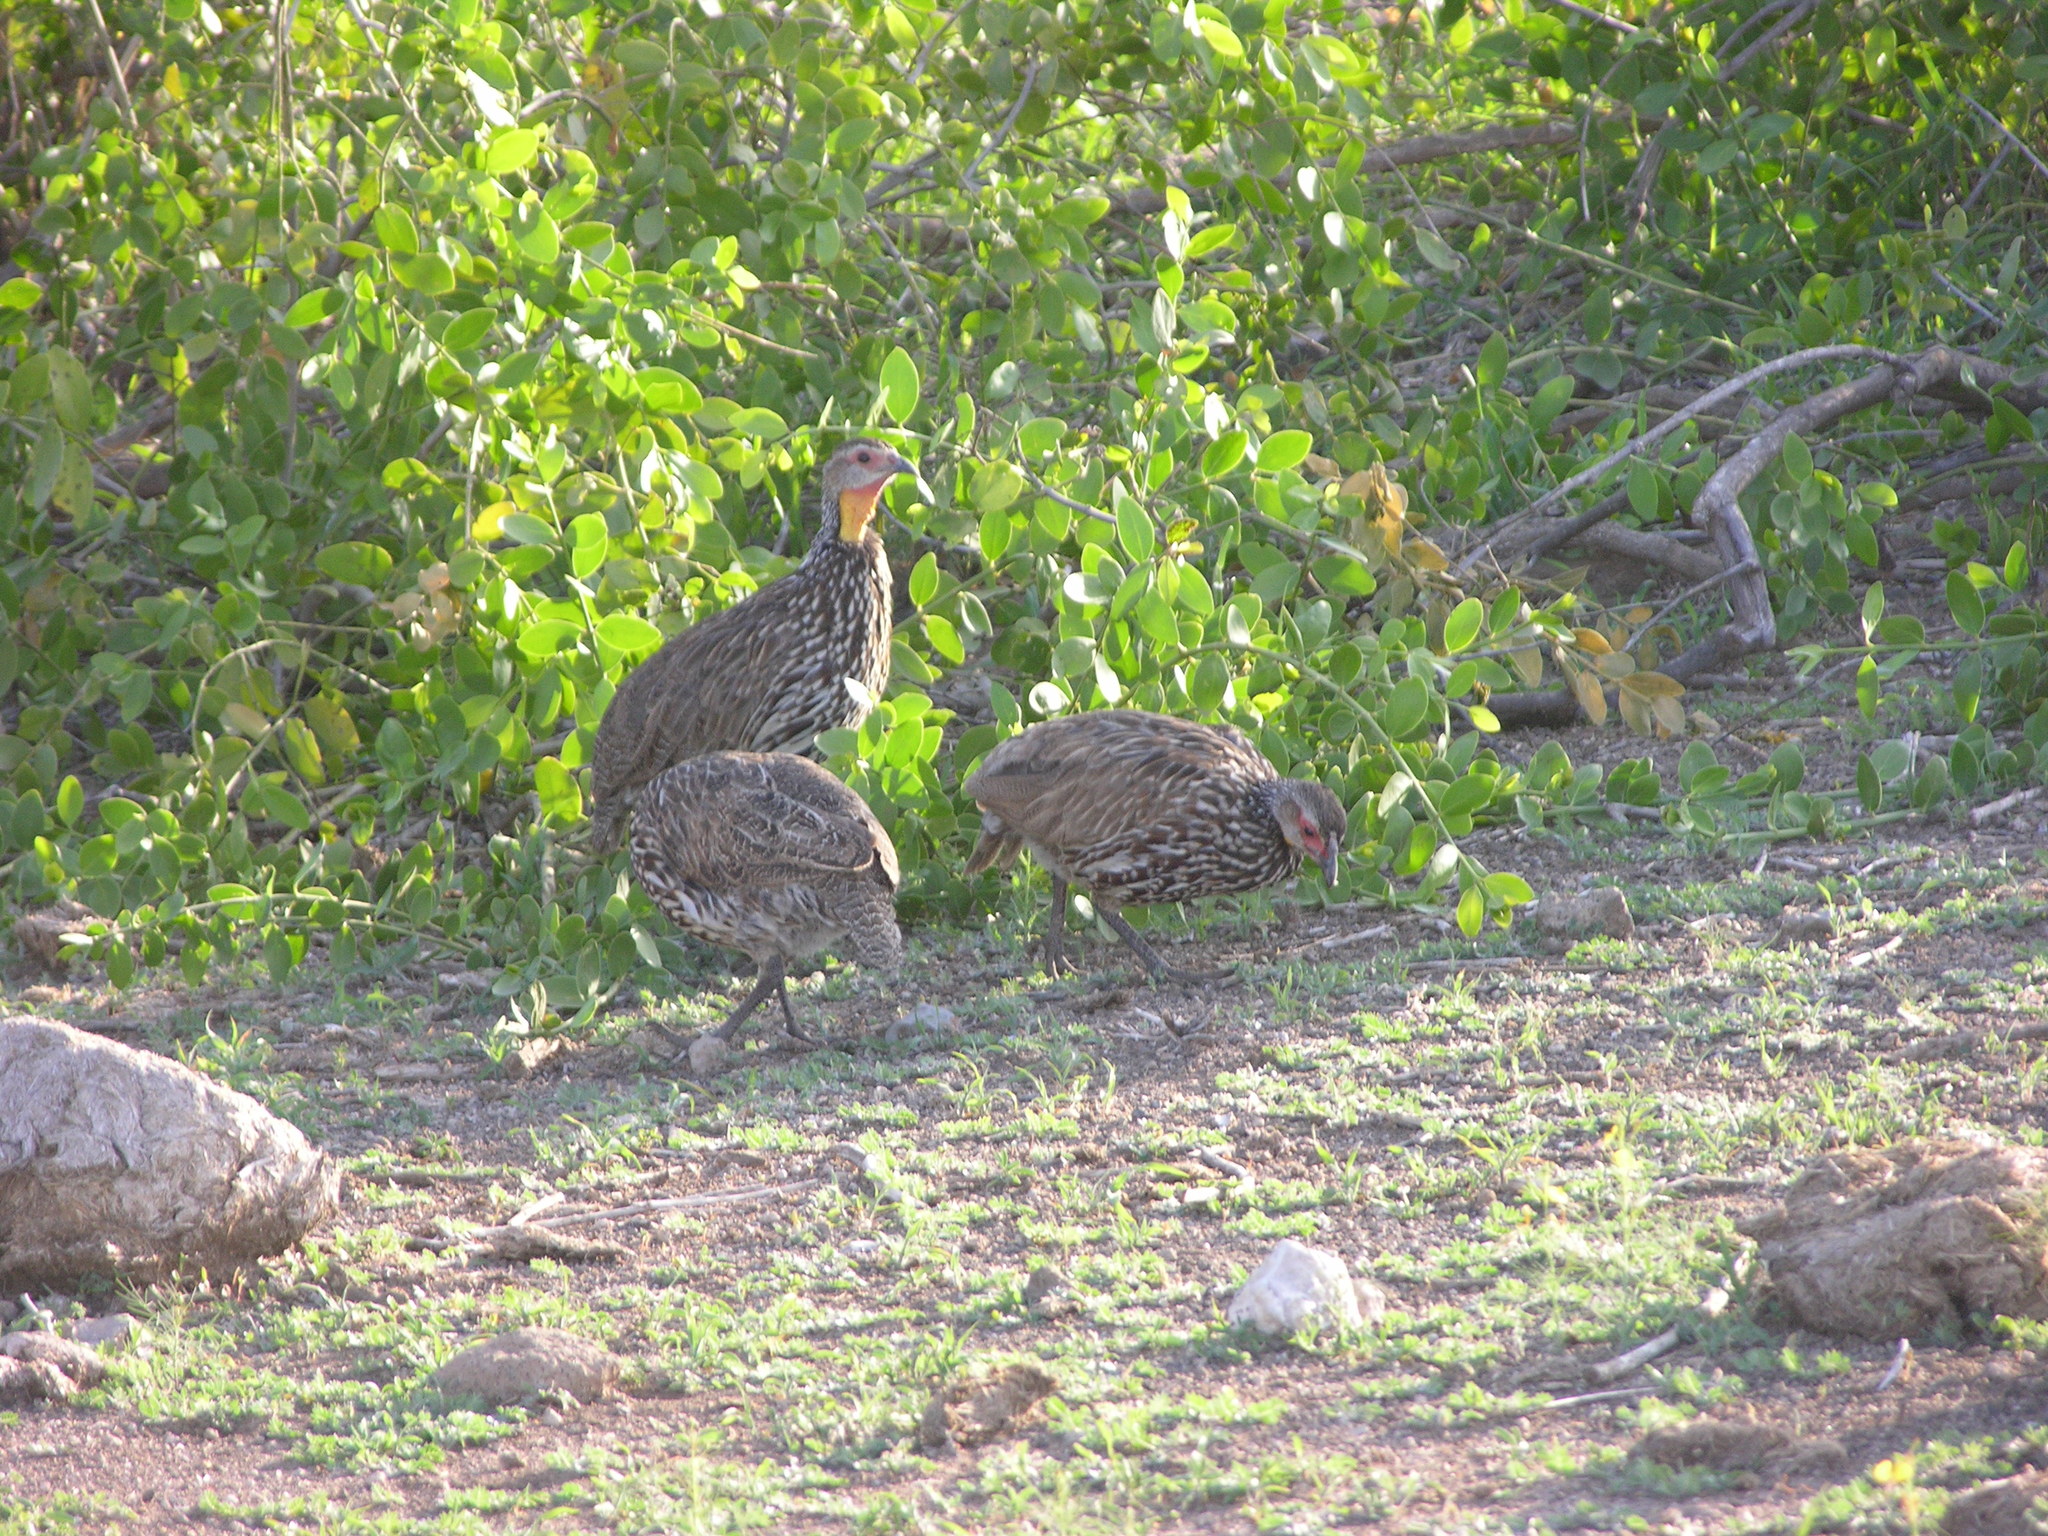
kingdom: Animalia
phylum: Chordata
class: Aves
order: Galliformes
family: Phasianidae
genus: Pternistis
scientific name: Pternistis leucoscepus
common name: Yellow-necked spurfowl
